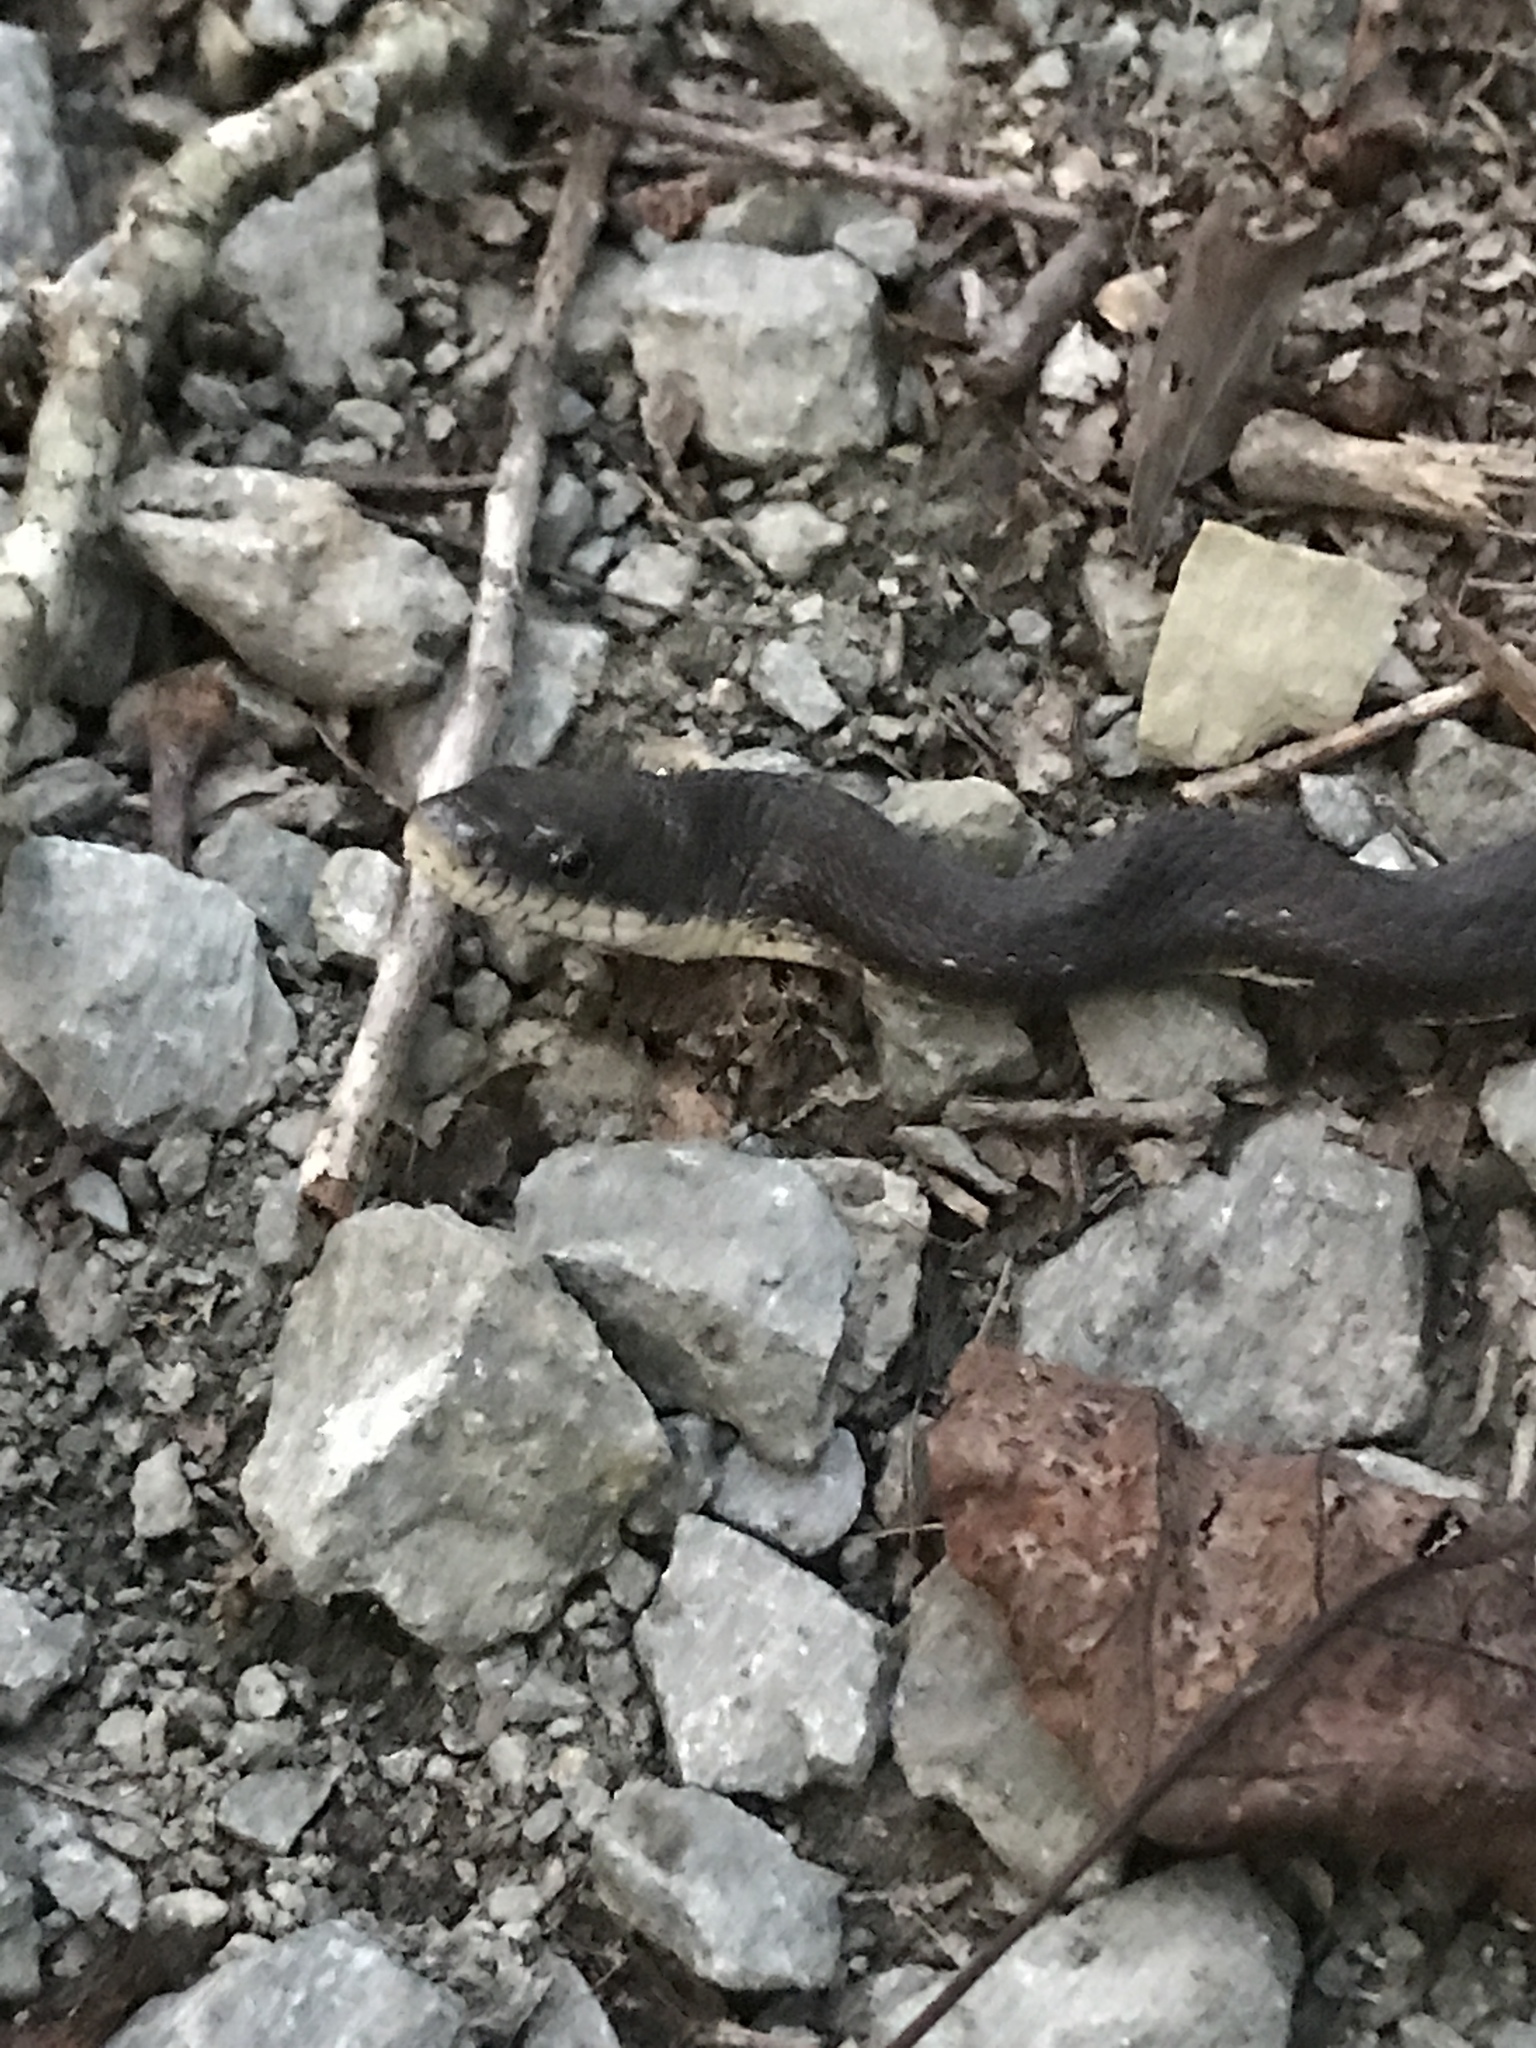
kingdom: Animalia
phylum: Chordata
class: Squamata
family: Colubridae
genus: Pantherophis
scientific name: Pantherophis alleghaniensis
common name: Eastern rat snake
